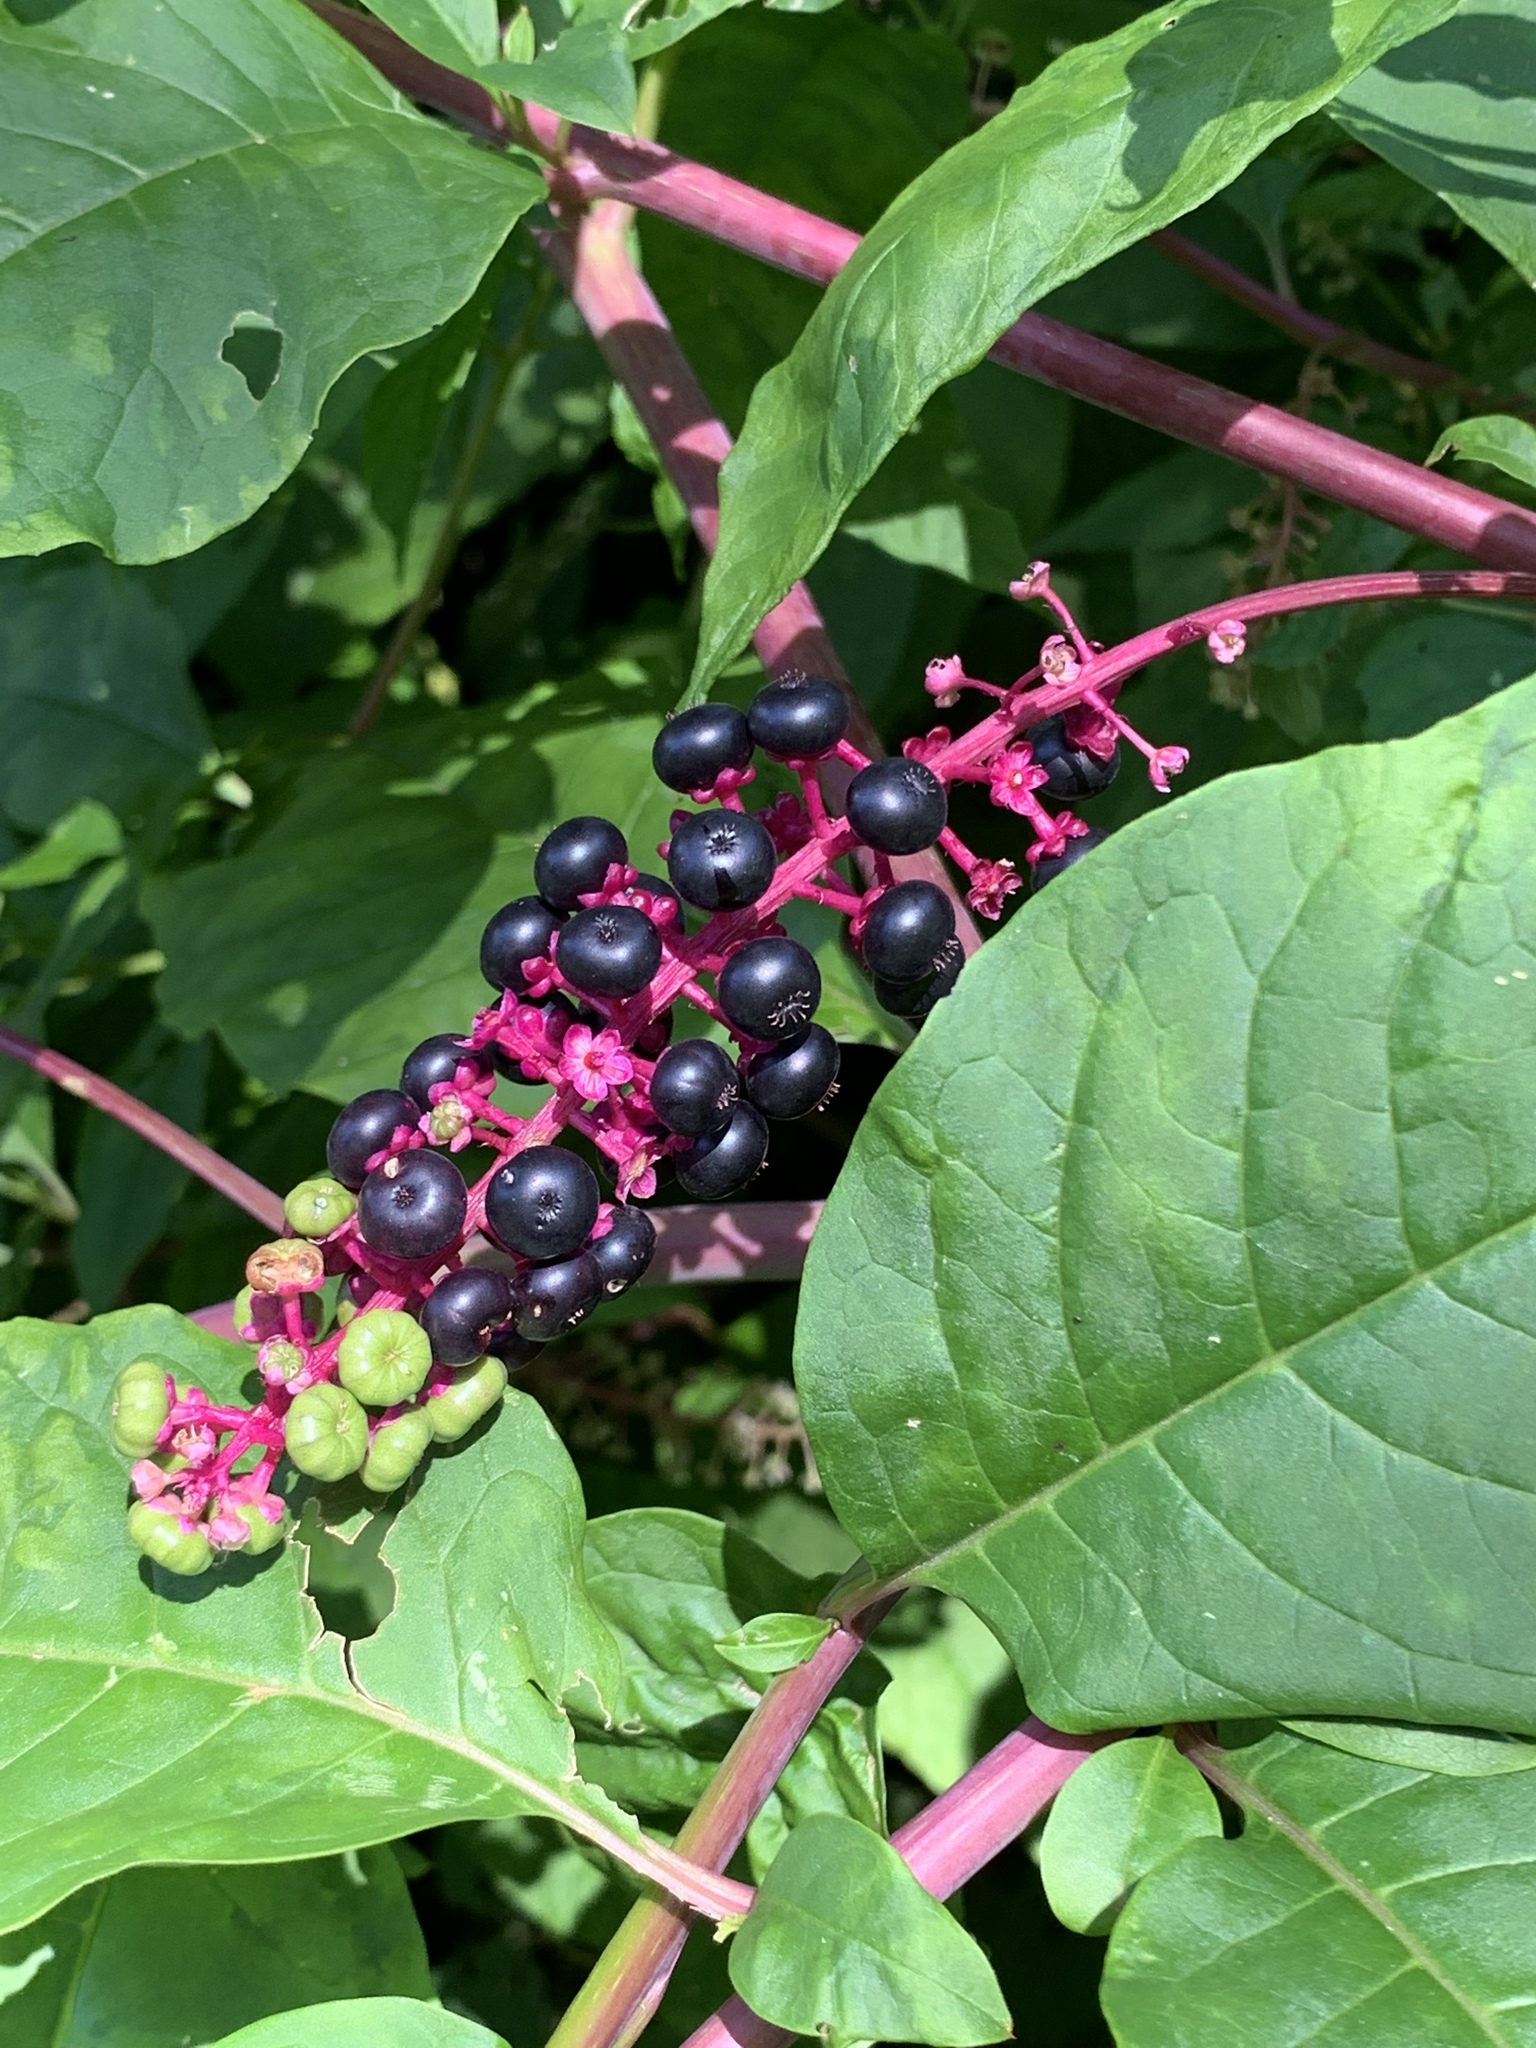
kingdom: Plantae
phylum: Tracheophyta
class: Magnoliopsida
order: Caryophyllales
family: Phytolaccaceae
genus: Phytolacca
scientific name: Phytolacca americana
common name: American pokeweed
